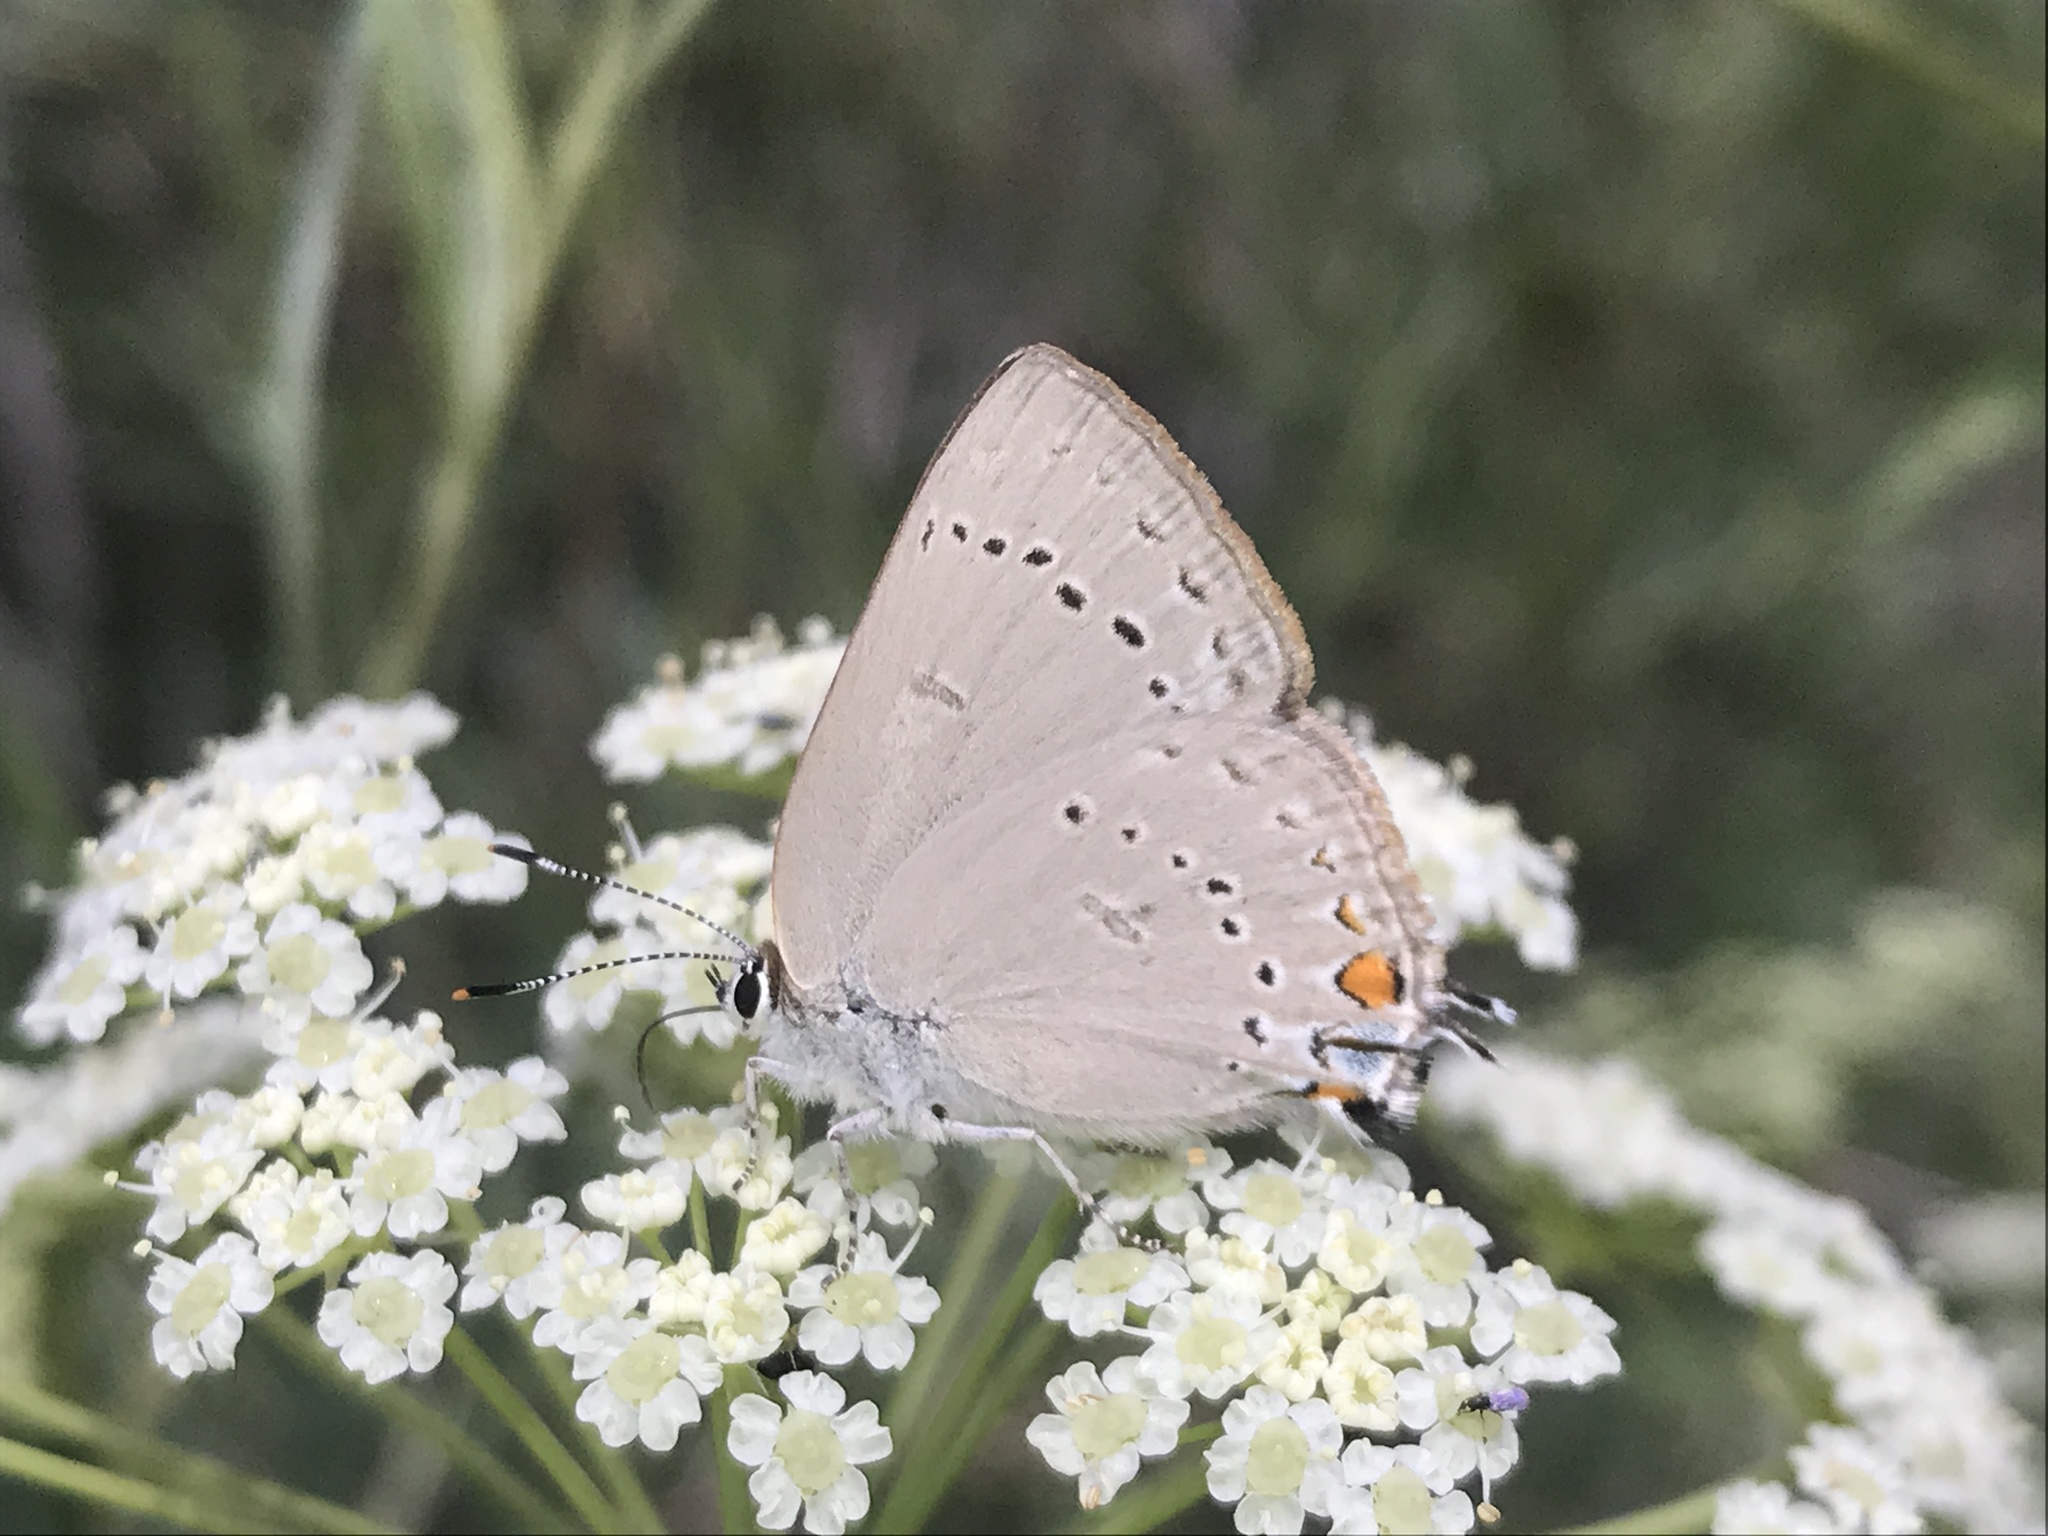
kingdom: Animalia
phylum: Arthropoda
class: Insecta
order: Lepidoptera
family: Lycaenidae
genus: Strymon
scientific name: Strymon sylvinus
